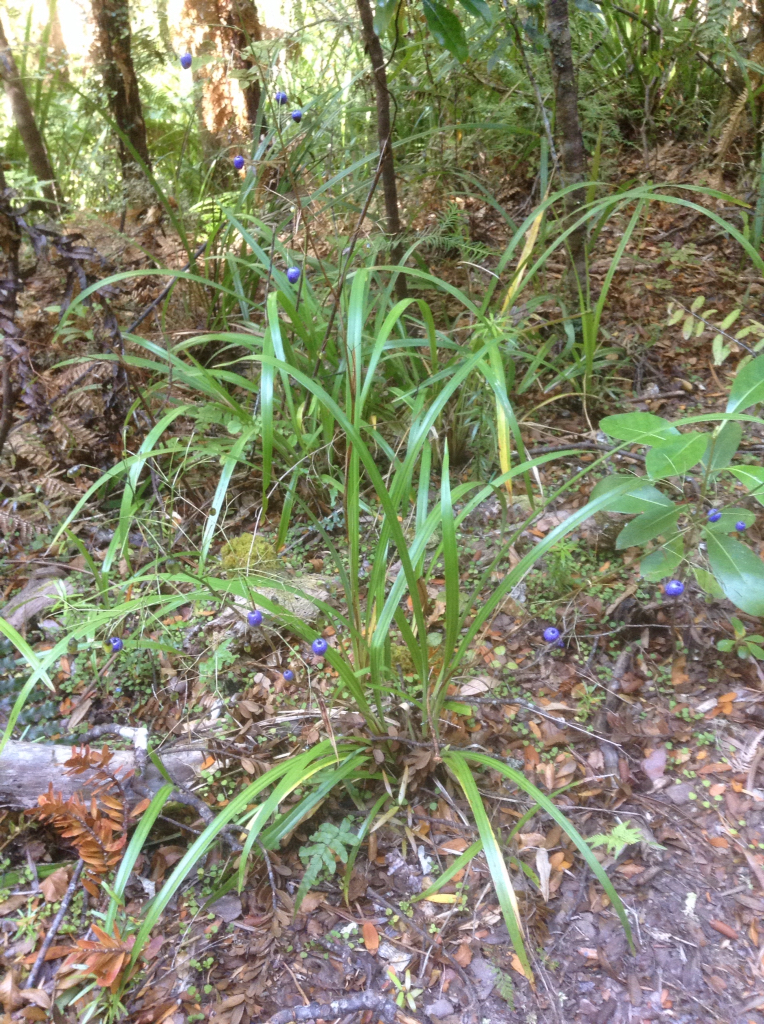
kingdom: Plantae
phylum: Tracheophyta
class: Liliopsida
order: Asparagales
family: Asphodelaceae
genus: Dianella
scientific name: Dianella nigra
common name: New zealand-blueberry
